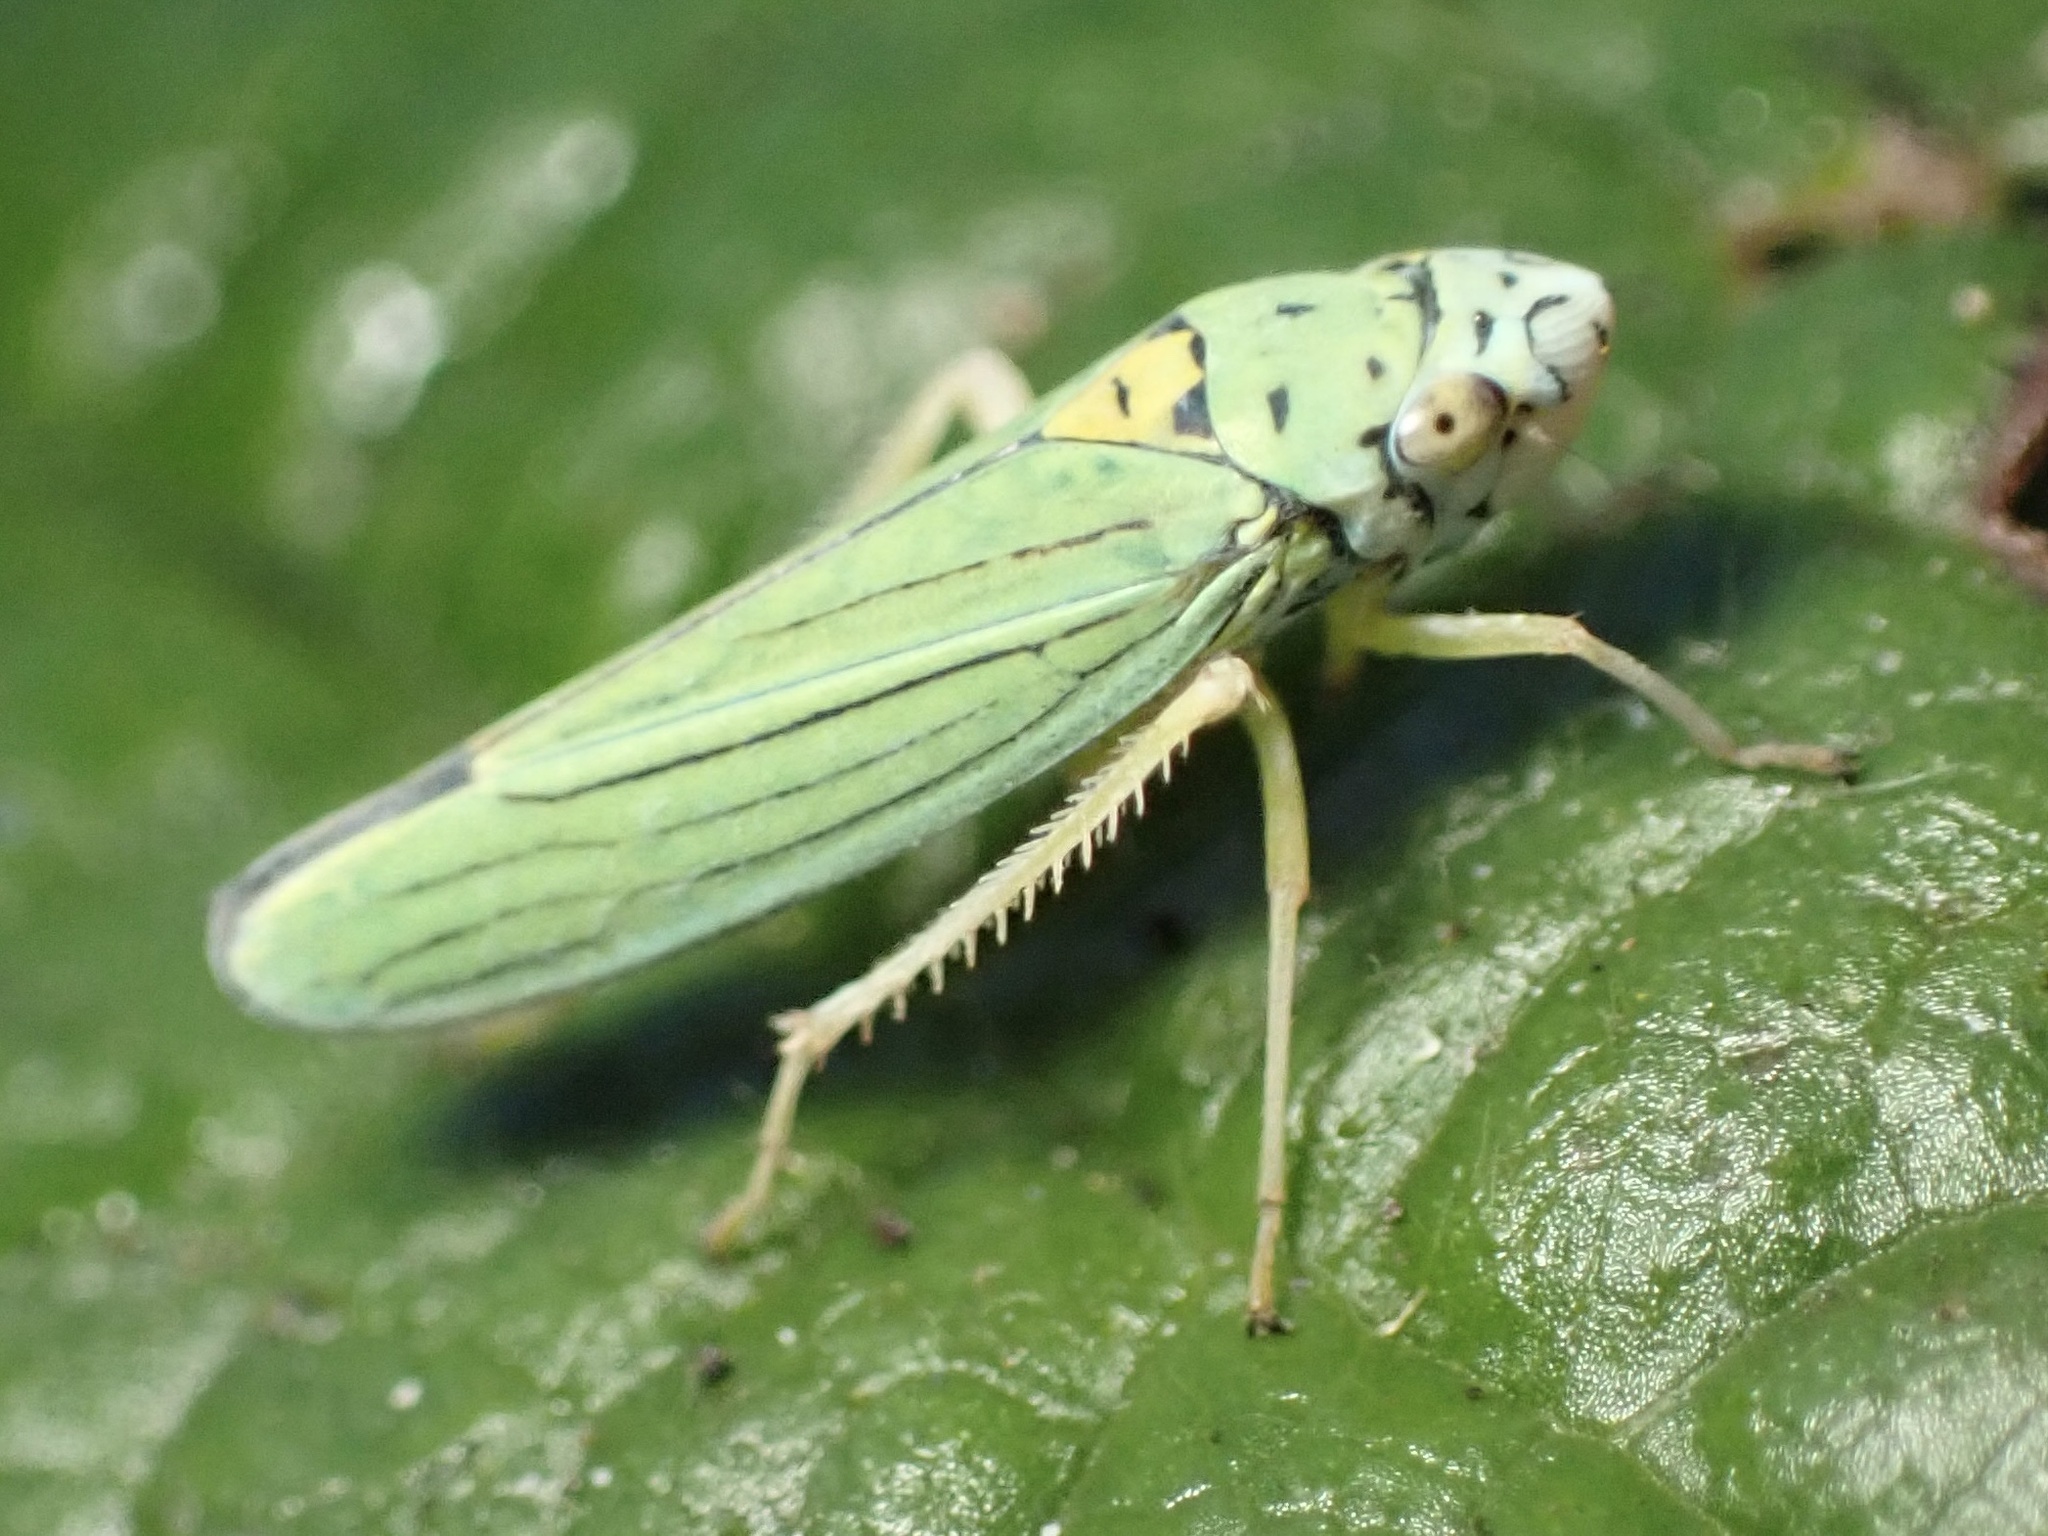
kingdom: Animalia
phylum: Arthropoda
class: Insecta
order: Hemiptera
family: Cicadellidae
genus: Graphocephala
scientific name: Graphocephala atropunctata
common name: Blue-green sharpshooter
